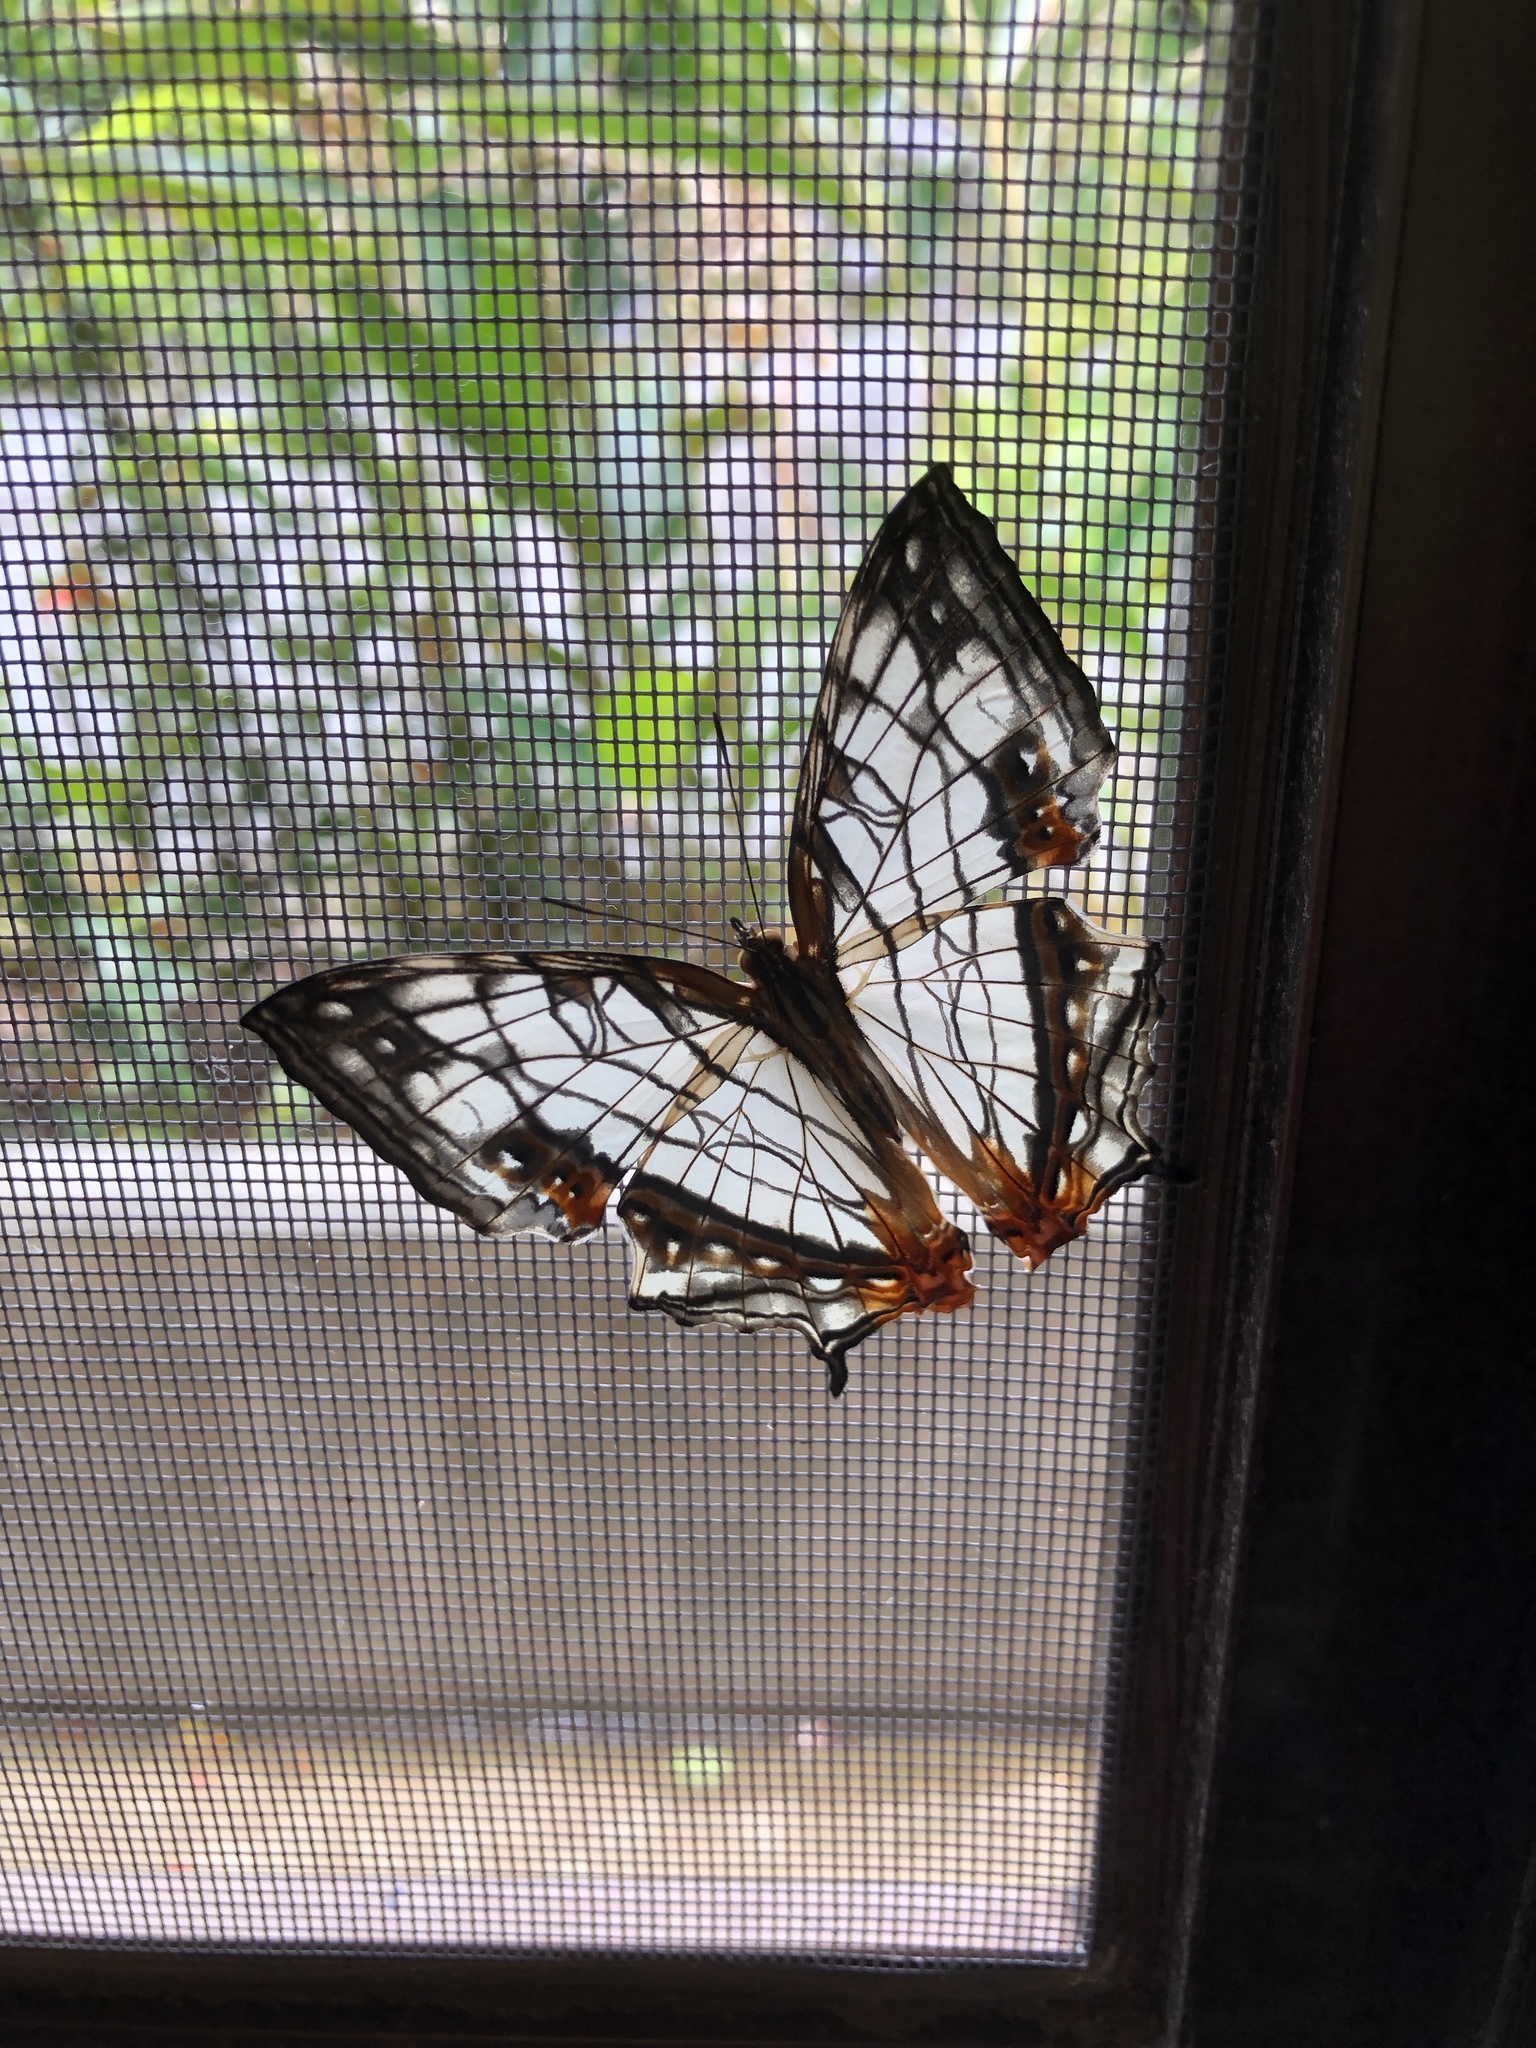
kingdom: Animalia
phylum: Arthropoda
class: Insecta
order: Lepidoptera
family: Nymphalidae
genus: Cyrestis
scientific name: Cyrestis thyodamas
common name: Common mapwing
